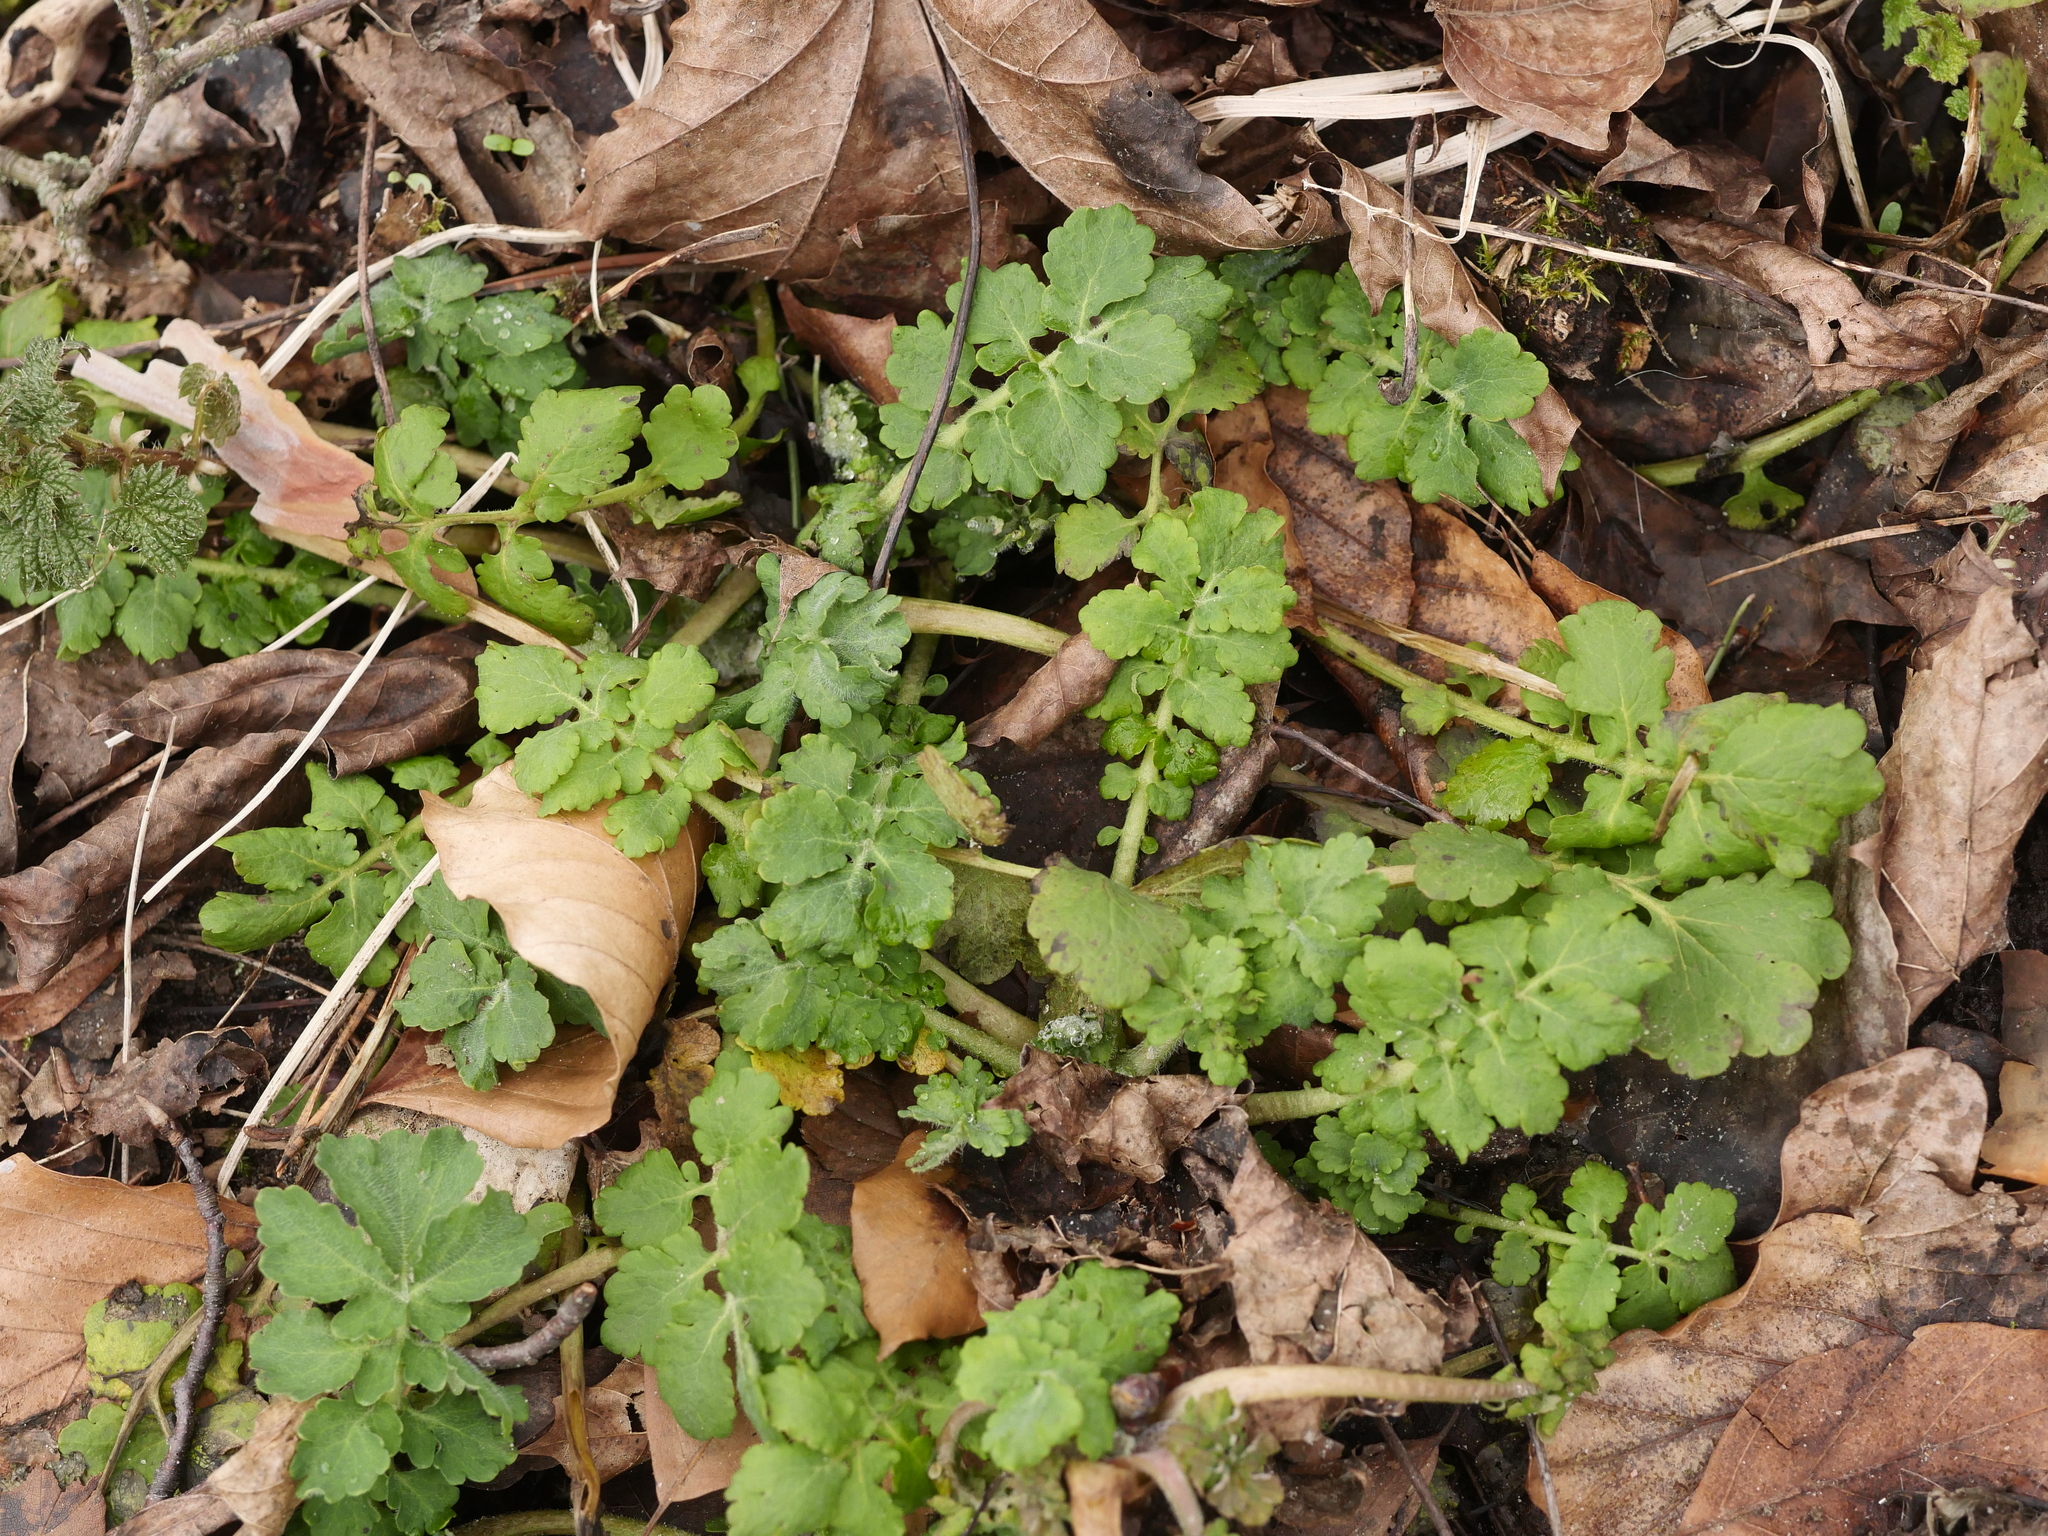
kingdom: Plantae
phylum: Tracheophyta
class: Magnoliopsida
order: Ranunculales
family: Papaveraceae
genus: Chelidonium
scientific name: Chelidonium majus
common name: Greater celandine
